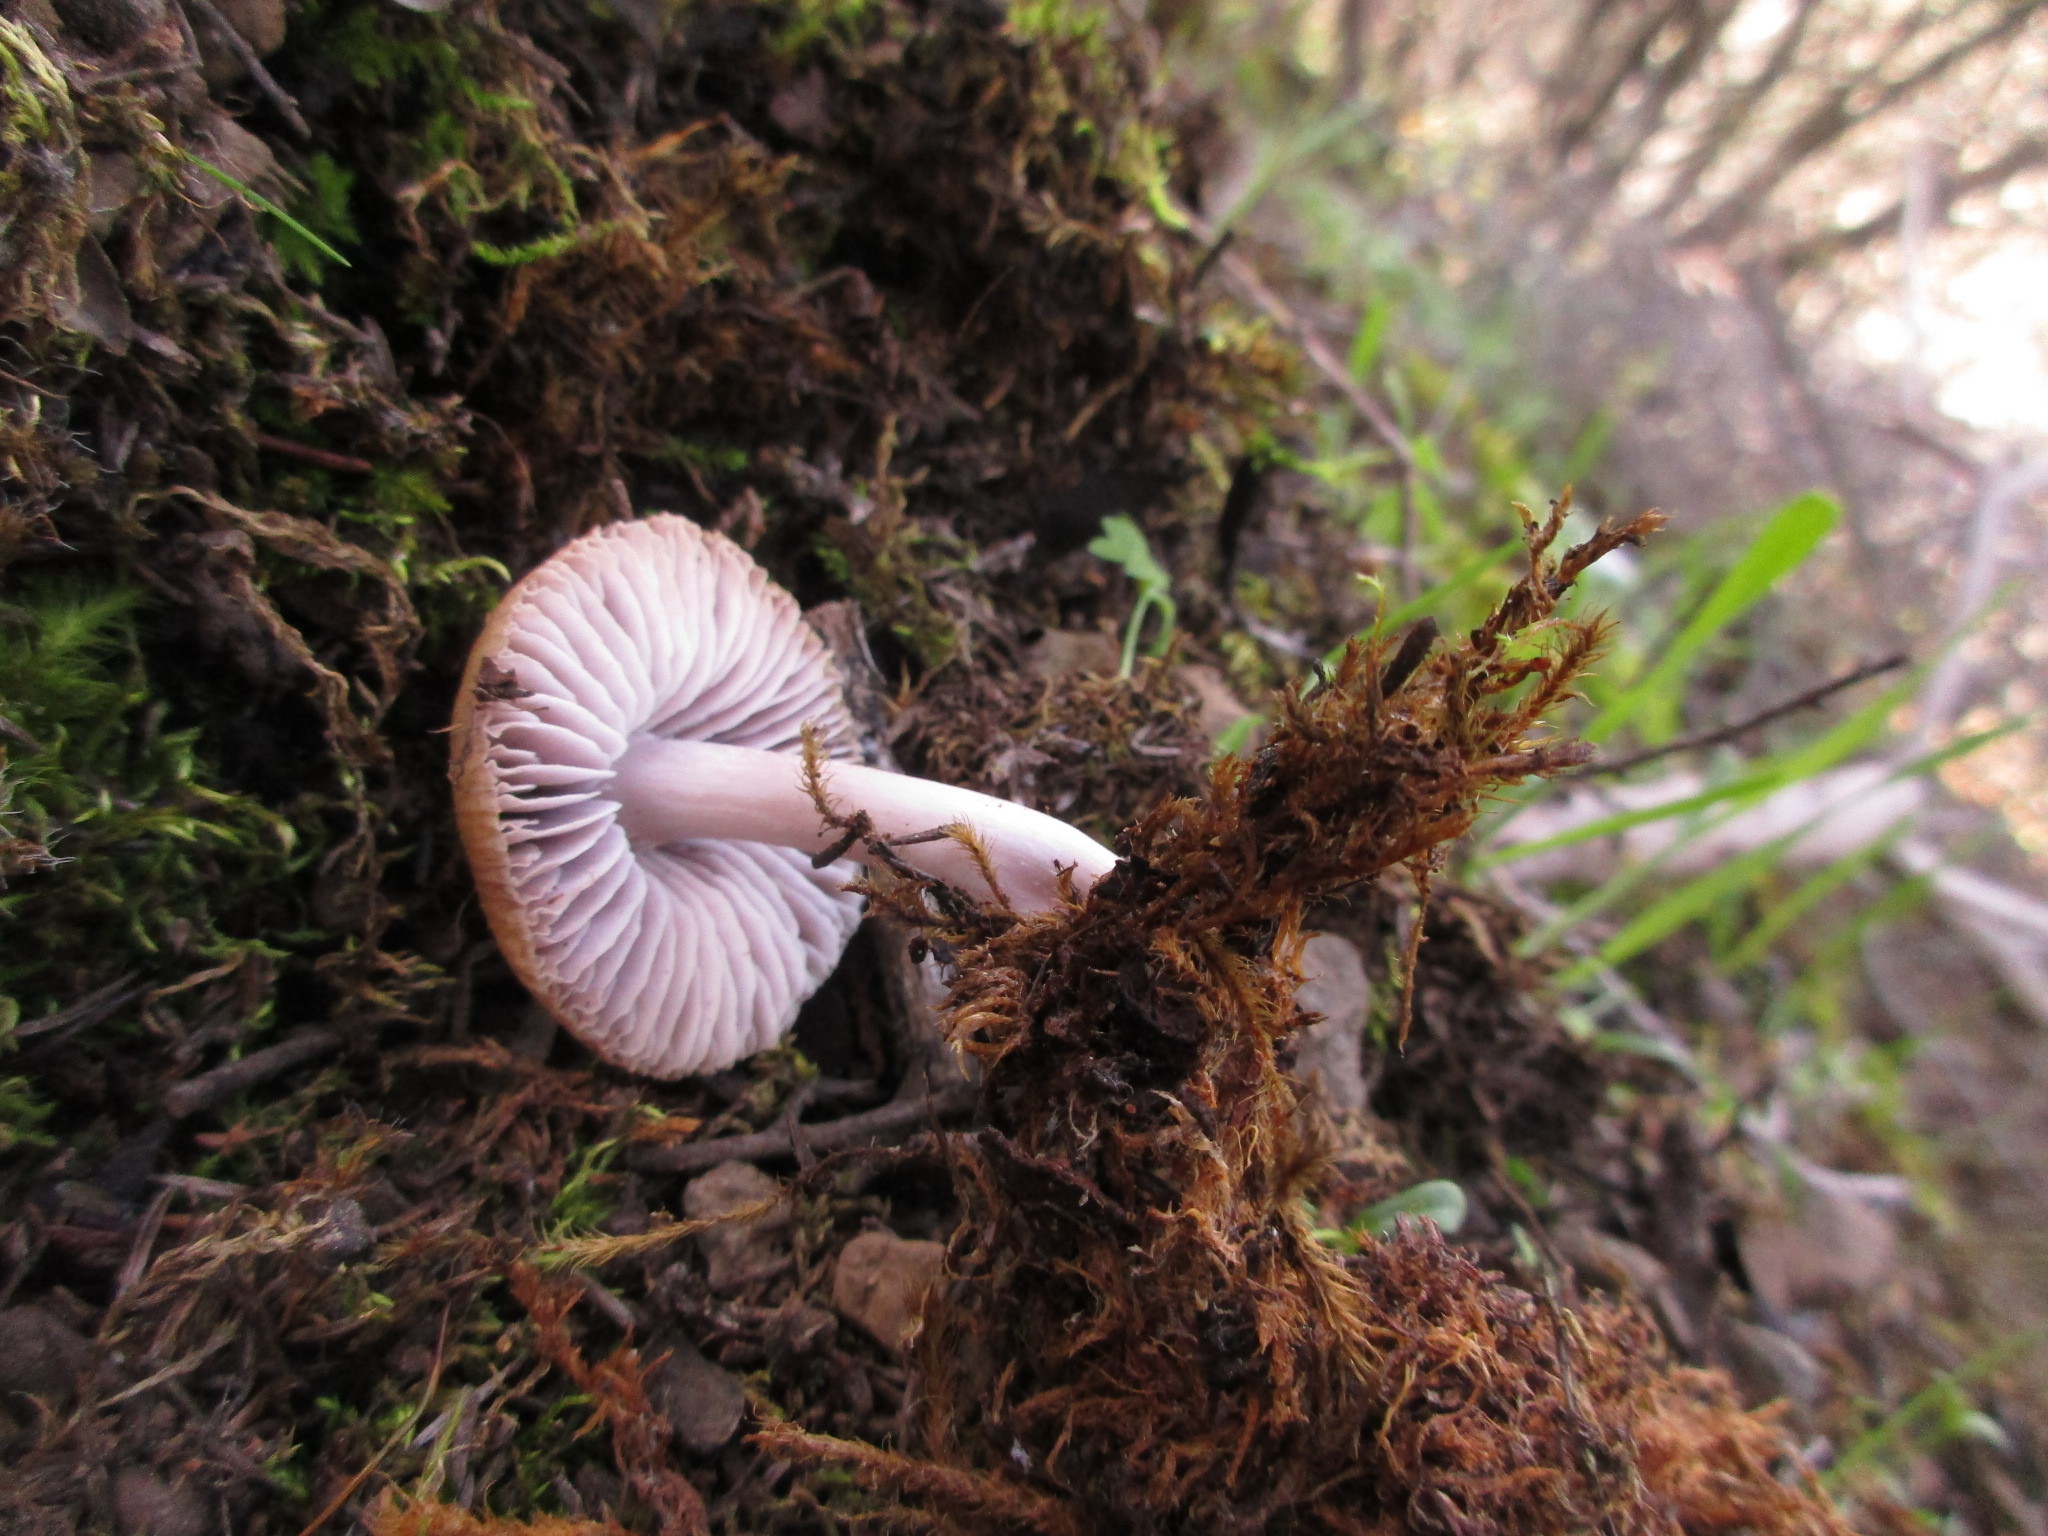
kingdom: Fungi
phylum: Basidiomycota
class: Agaricomycetes
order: Agaricales
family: Mycenaceae
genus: Mycena
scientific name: Mycena pura
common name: Lilac bonnet
